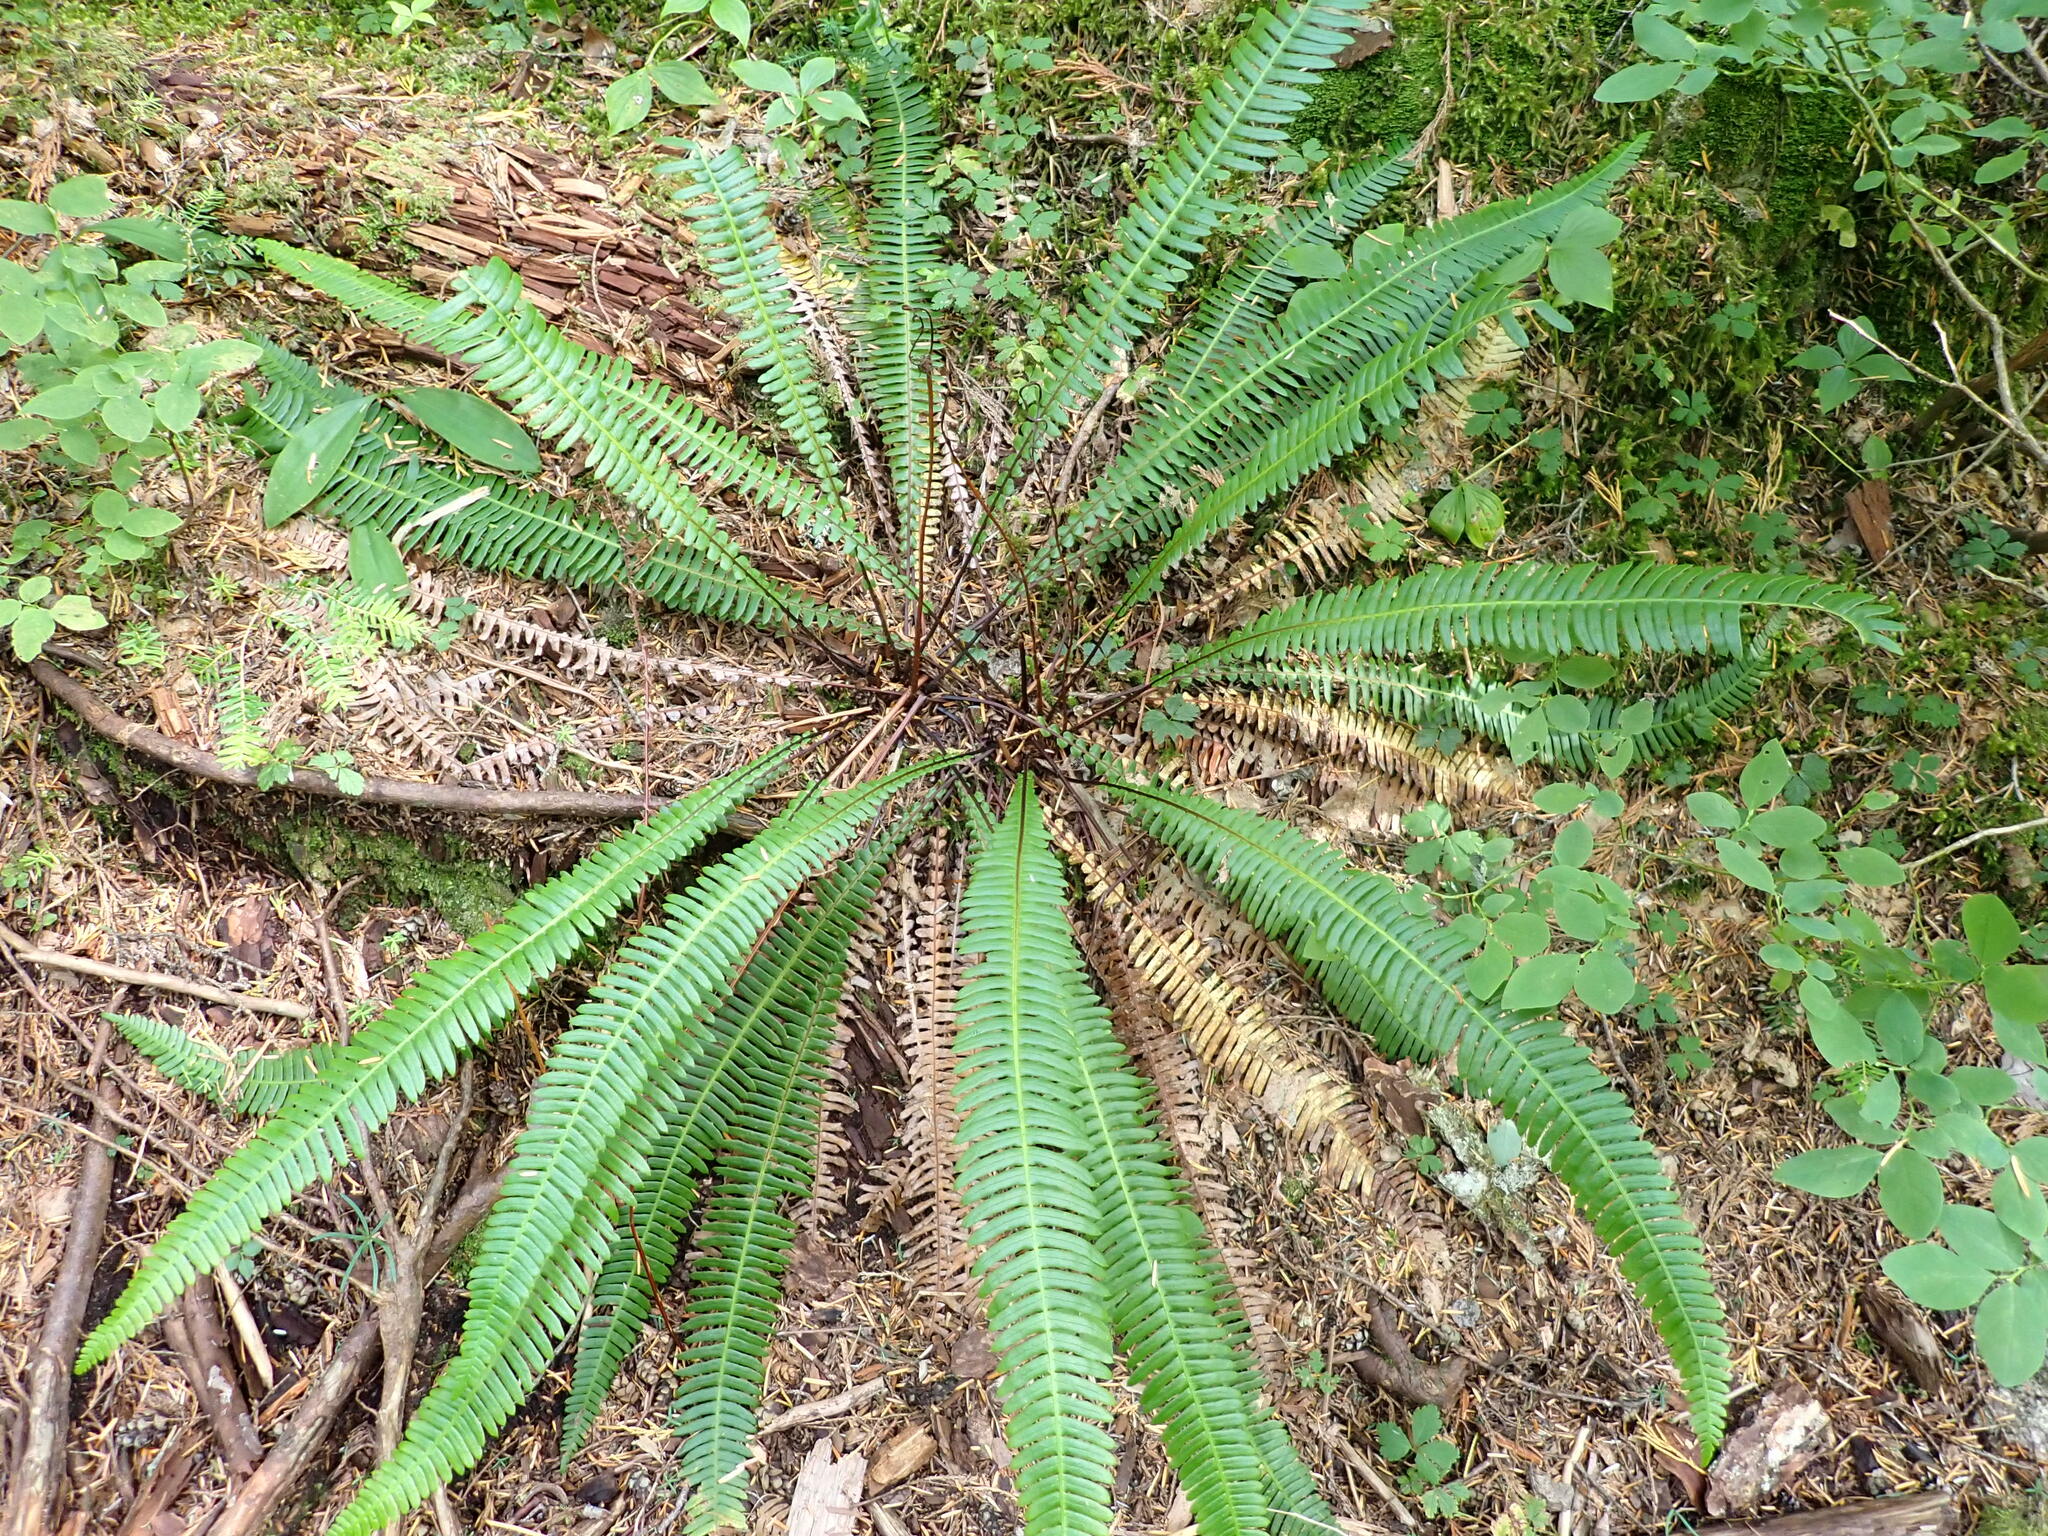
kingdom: Plantae
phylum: Tracheophyta
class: Polypodiopsida
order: Polypodiales
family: Blechnaceae
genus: Struthiopteris
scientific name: Struthiopteris spicant
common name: Deer fern
